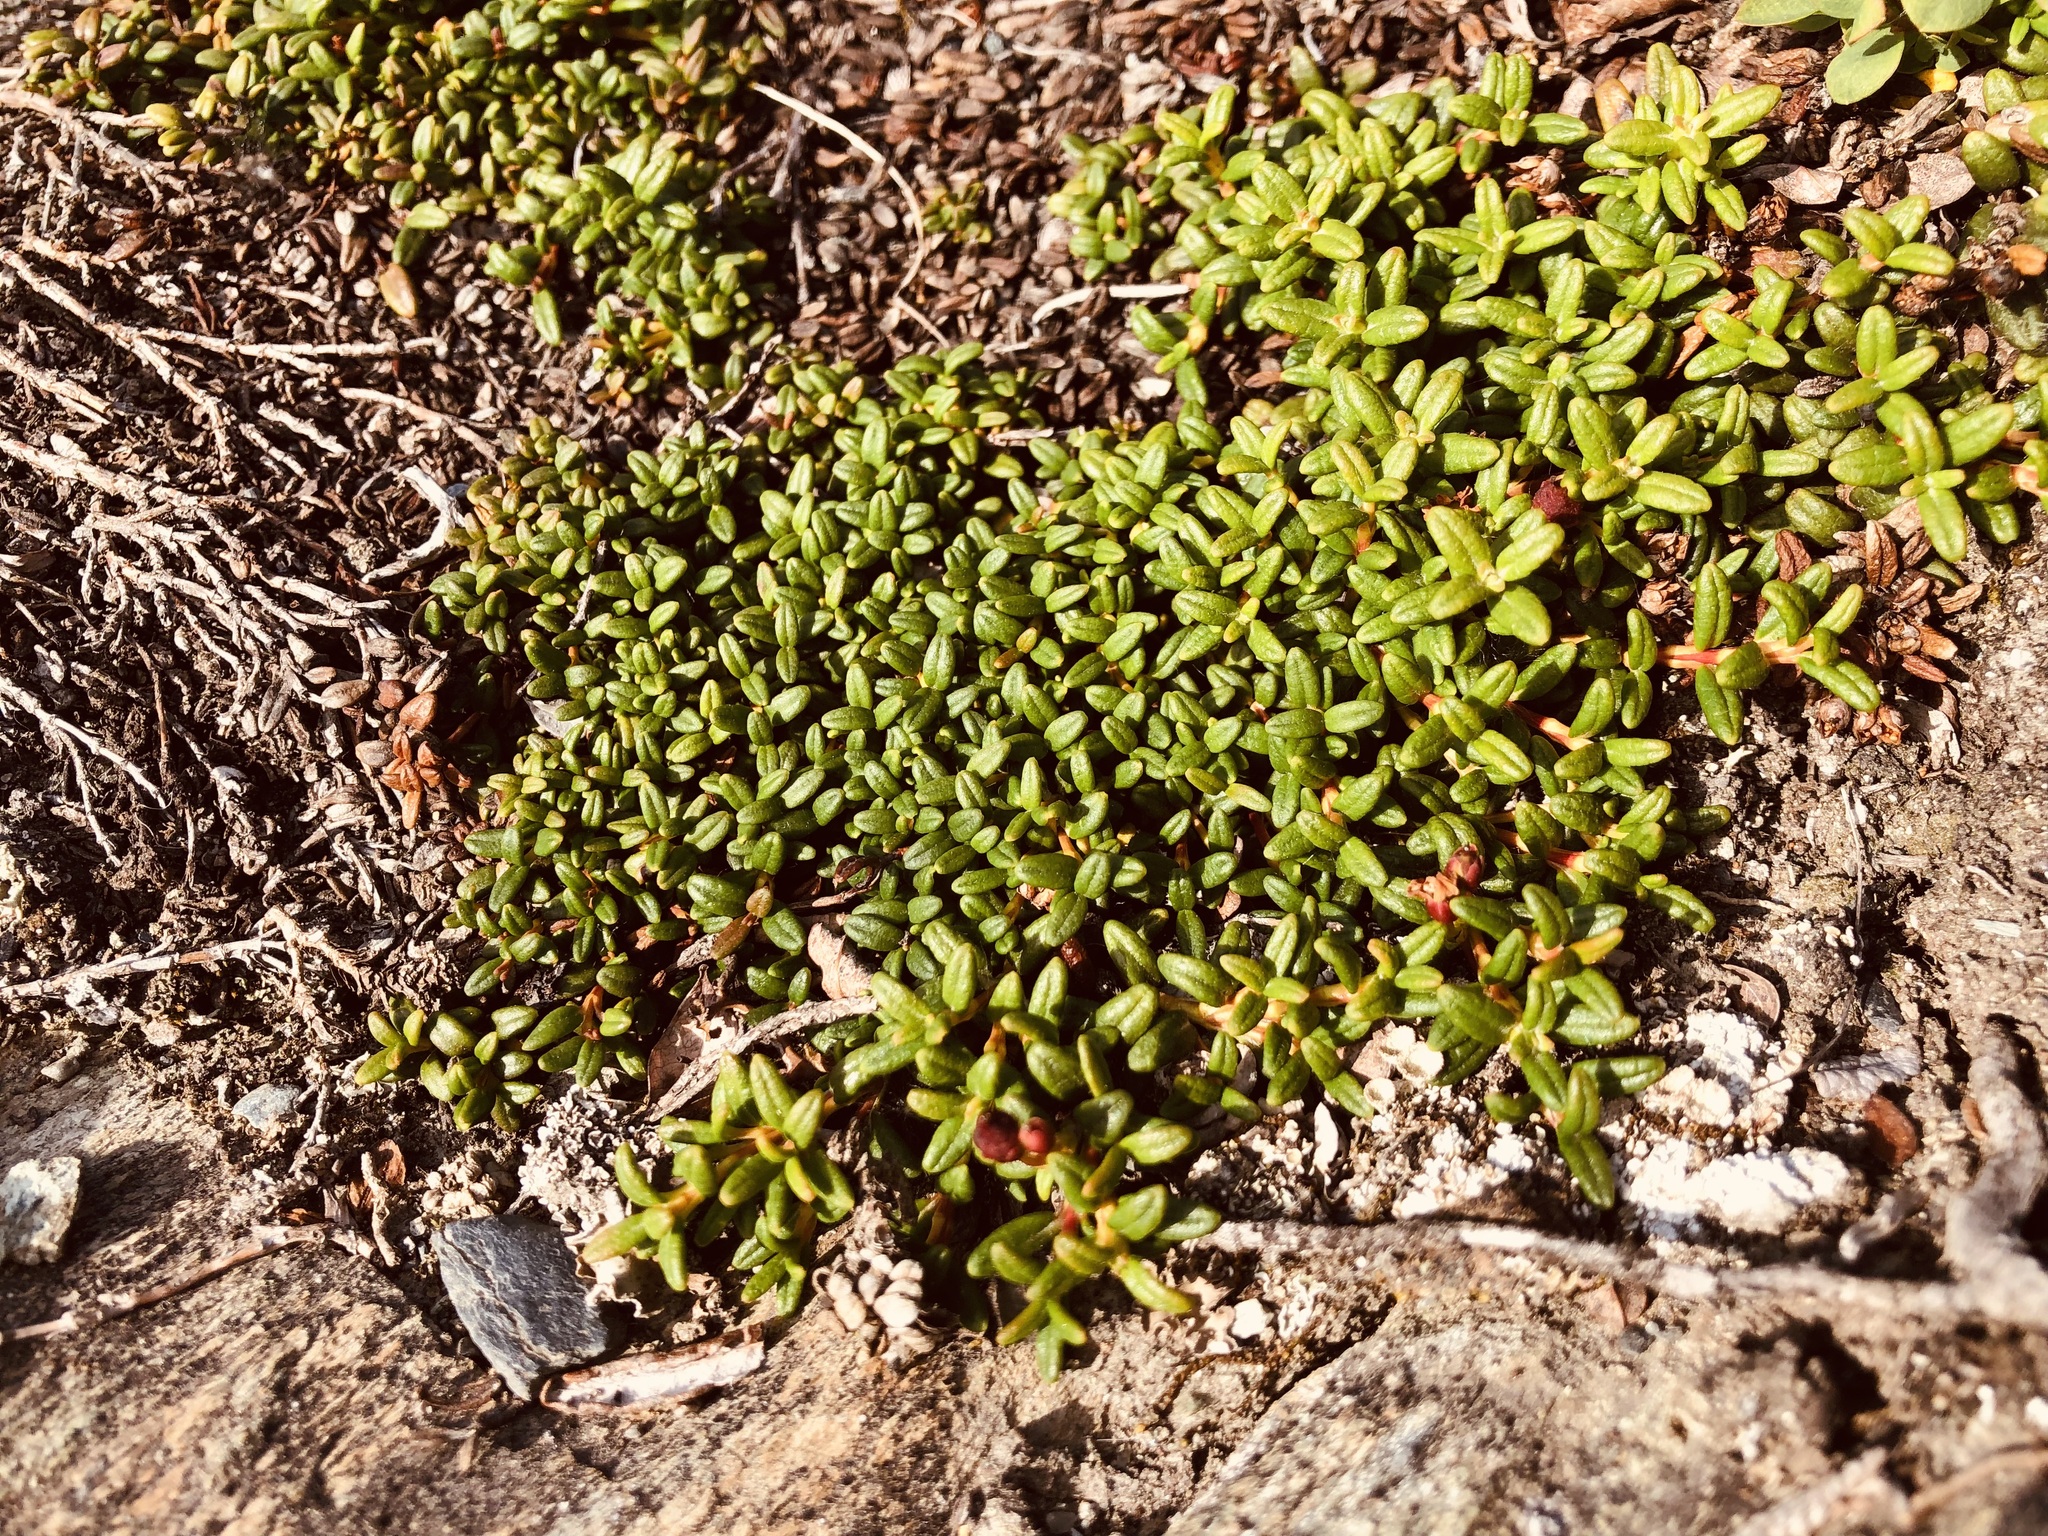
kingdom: Plantae
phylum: Tracheophyta
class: Magnoliopsida
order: Ericales
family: Ericaceae
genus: Kalmia
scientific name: Kalmia procumbens
